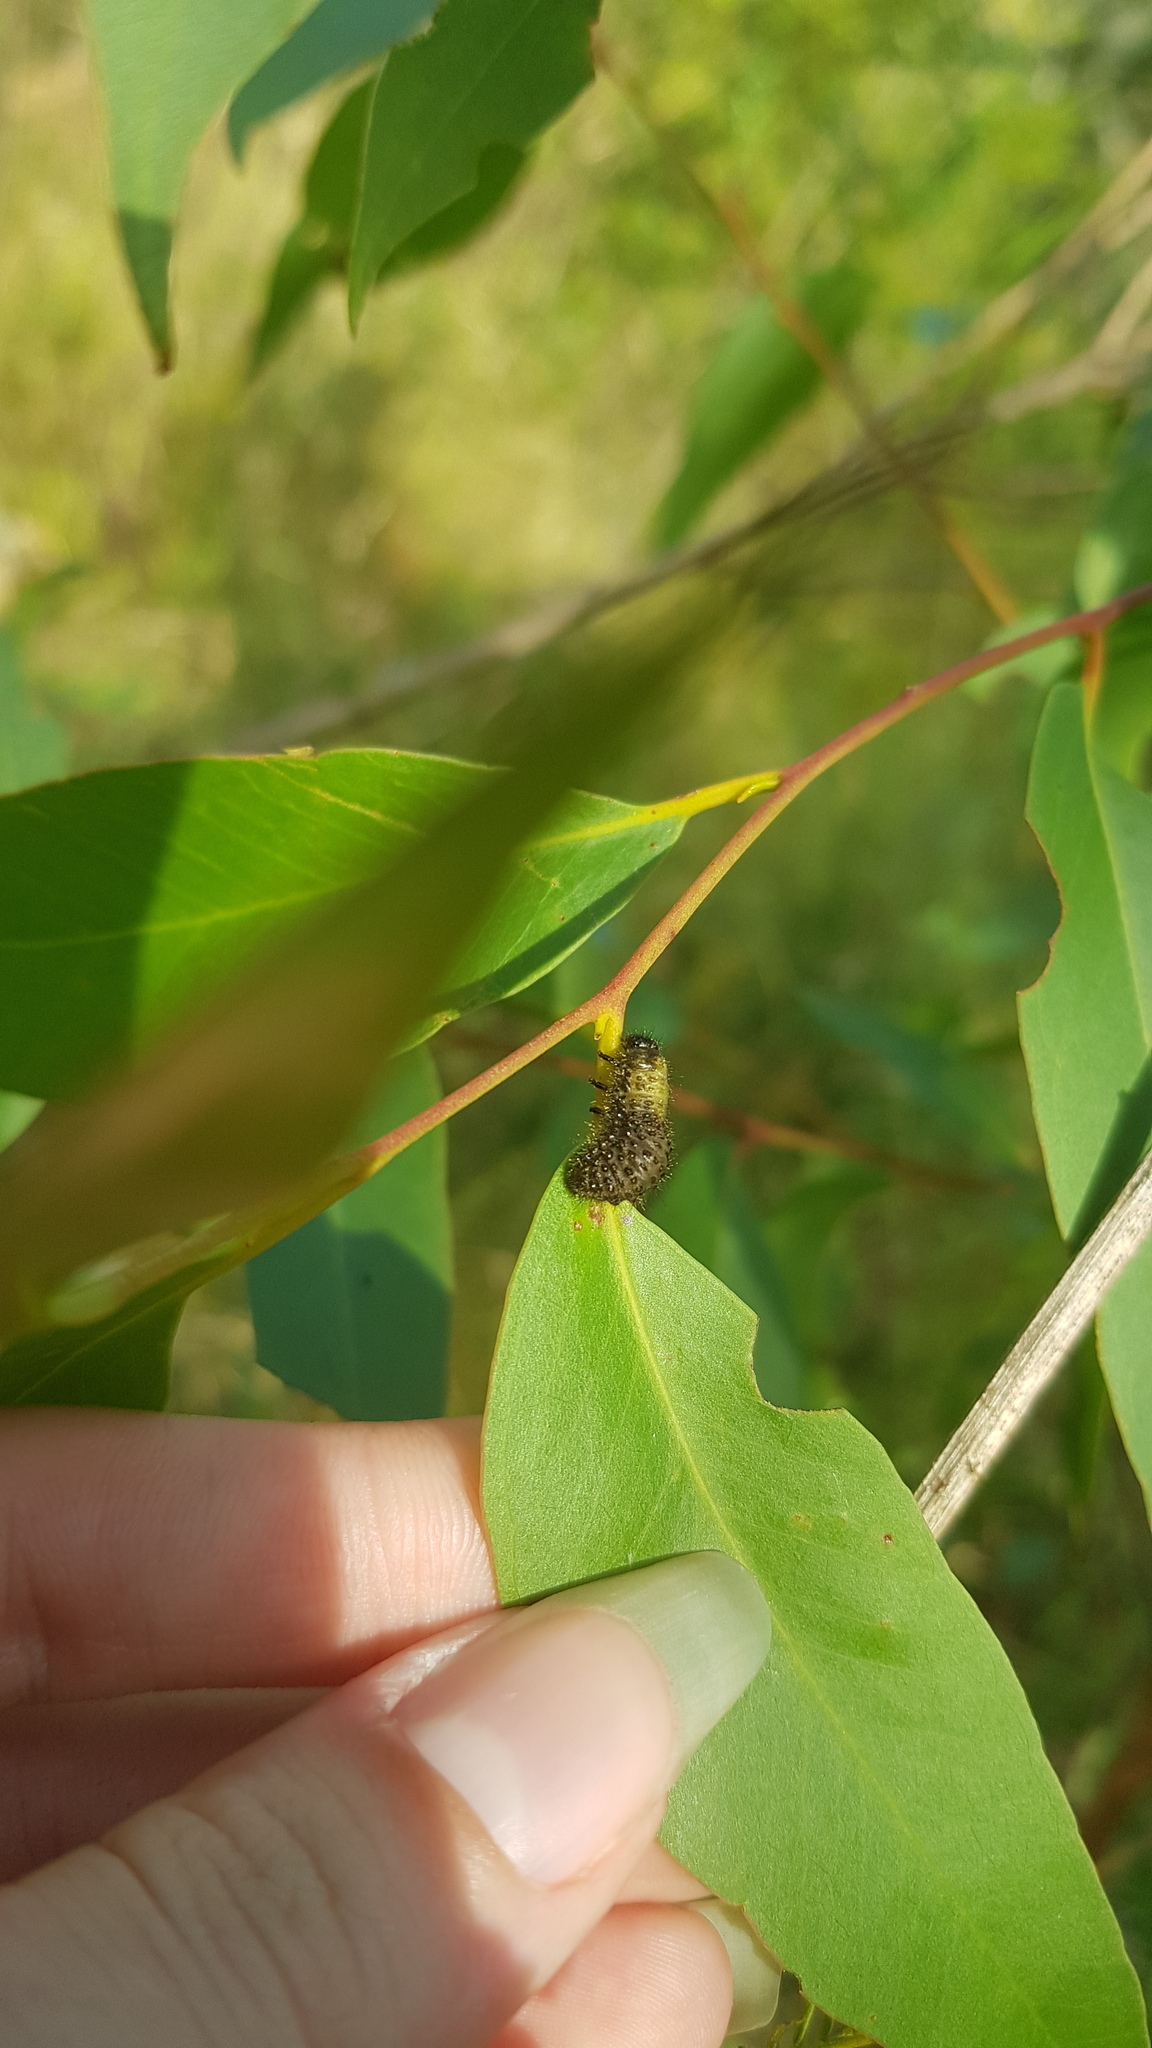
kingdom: Animalia
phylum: Arthropoda
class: Insecta
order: Coleoptera
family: Chrysomelidae
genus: Paropsisterna
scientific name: Paropsisterna beata
